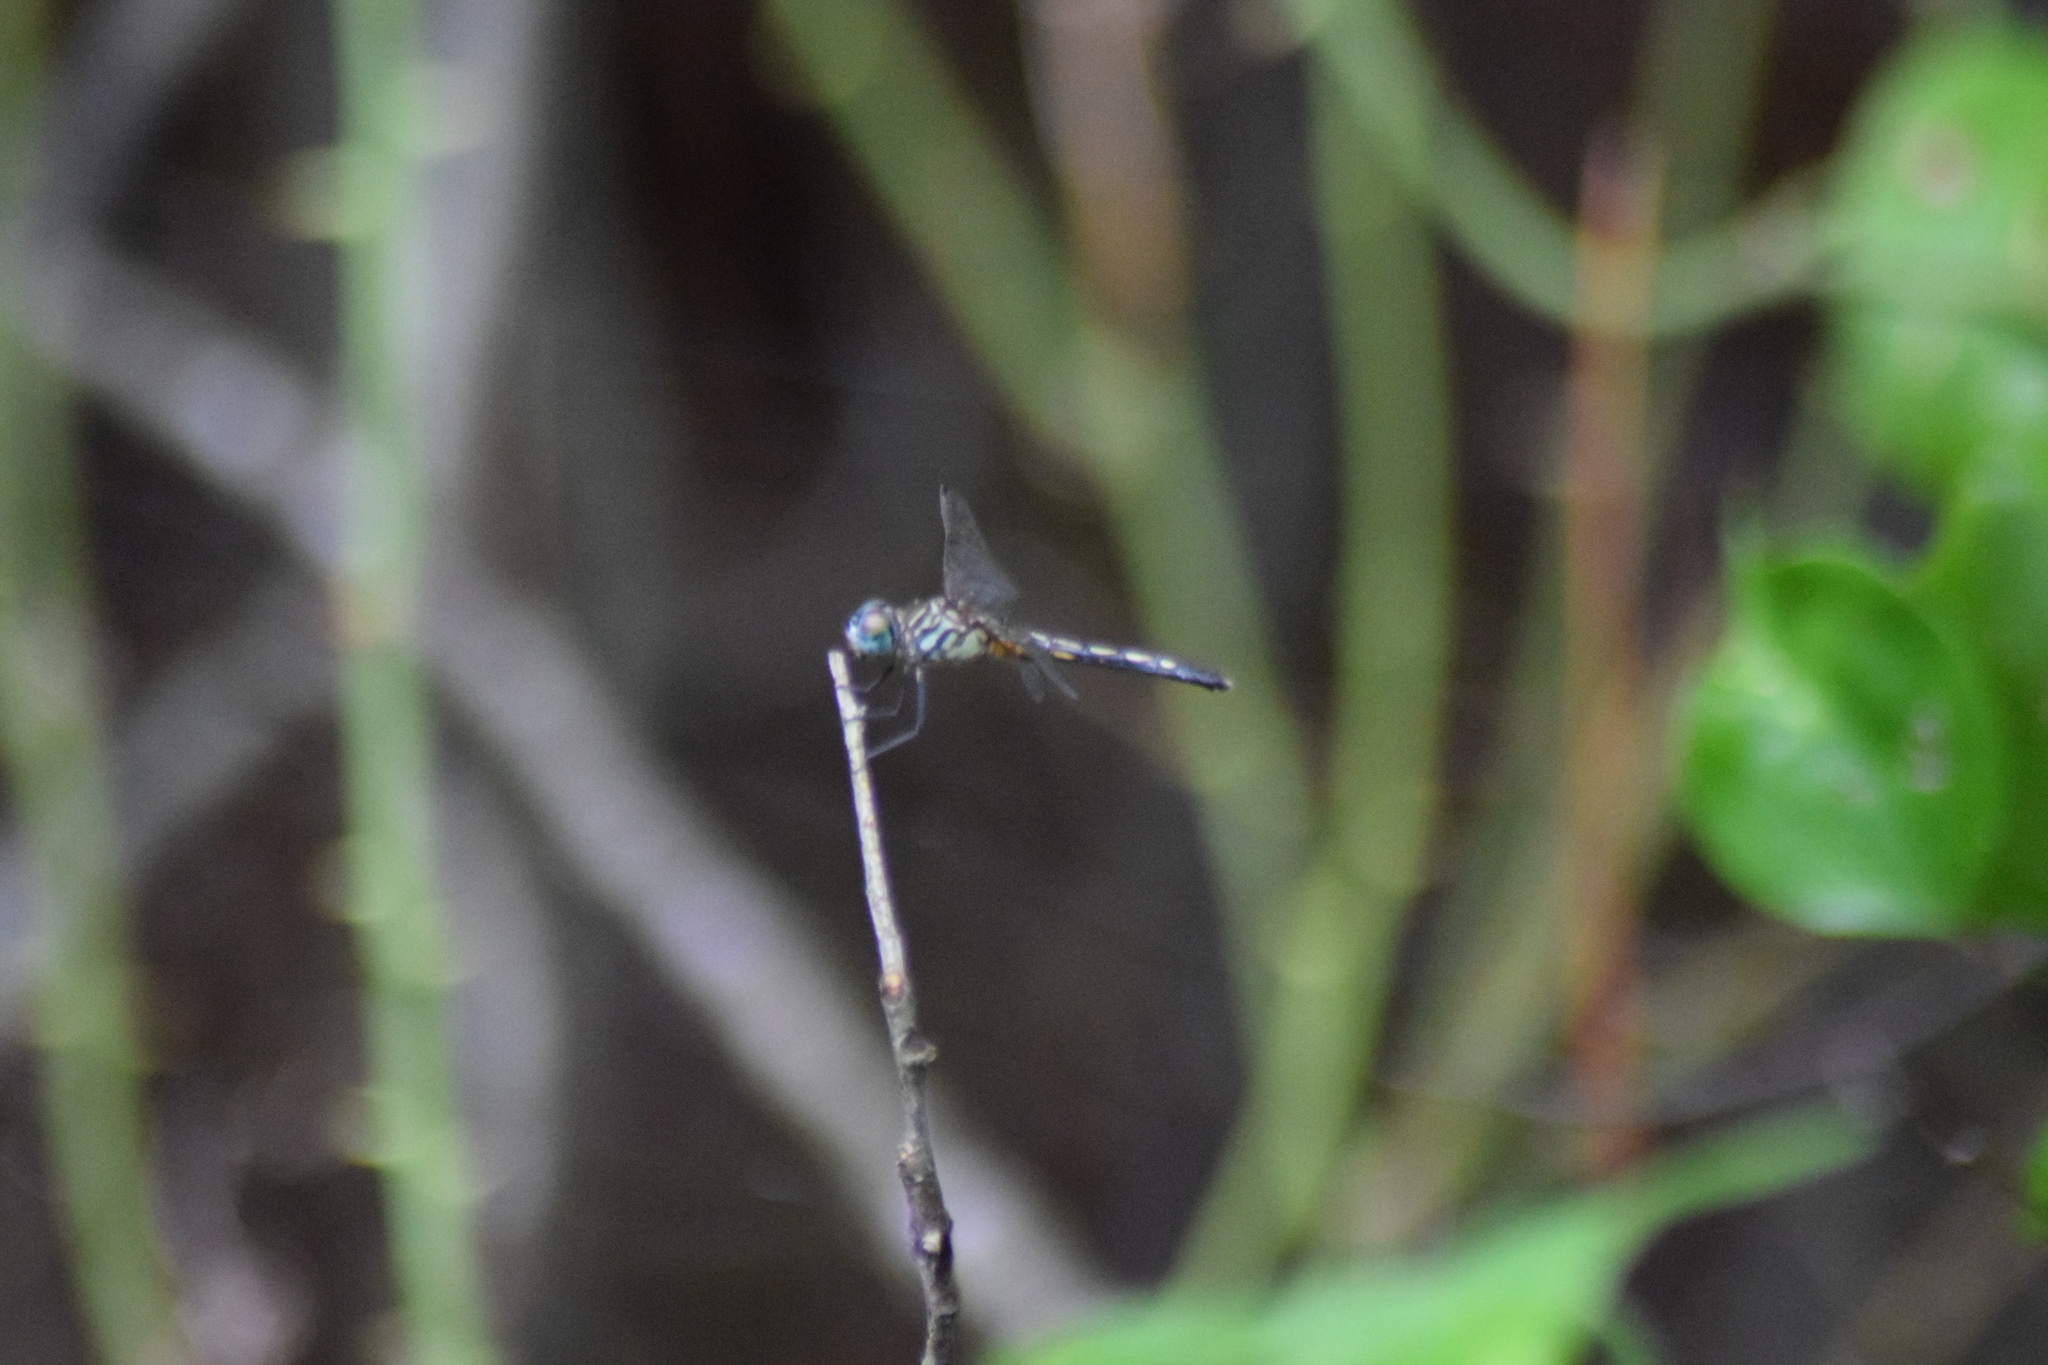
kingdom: Animalia
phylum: Arthropoda
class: Insecta
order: Odonata
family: Libellulidae
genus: Pachydiplax
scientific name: Pachydiplax longipennis
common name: Blue dasher
